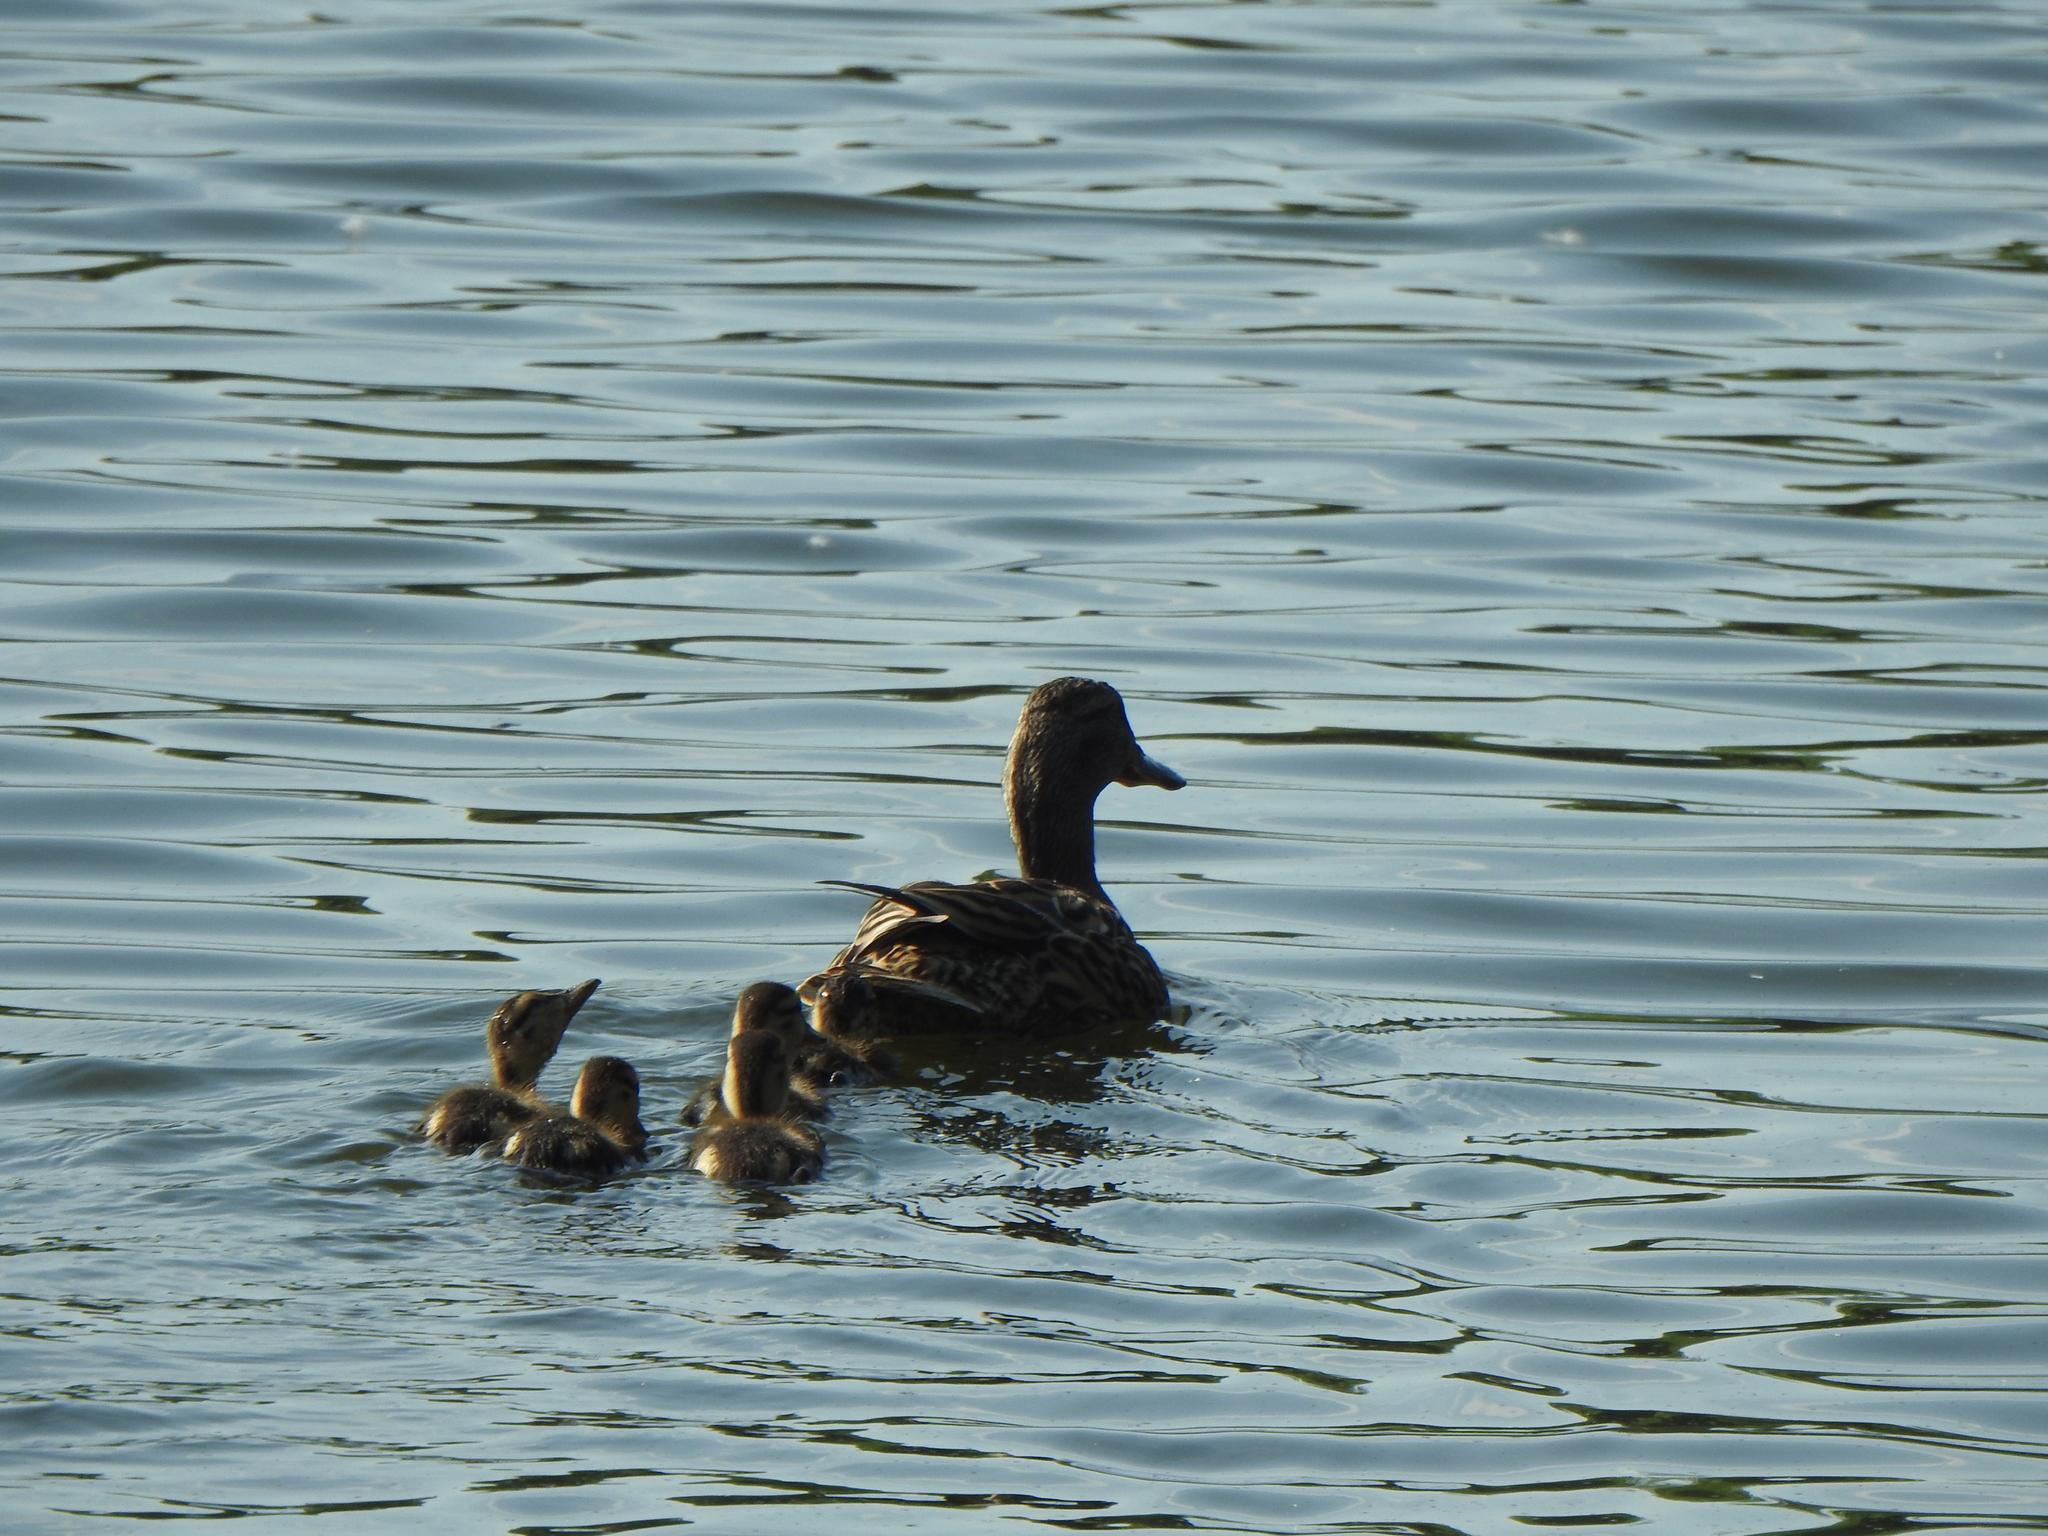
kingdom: Animalia
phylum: Chordata
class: Aves
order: Anseriformes
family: Anatidae
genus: Anas
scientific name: Anas platyrhynchos
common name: Mallard
